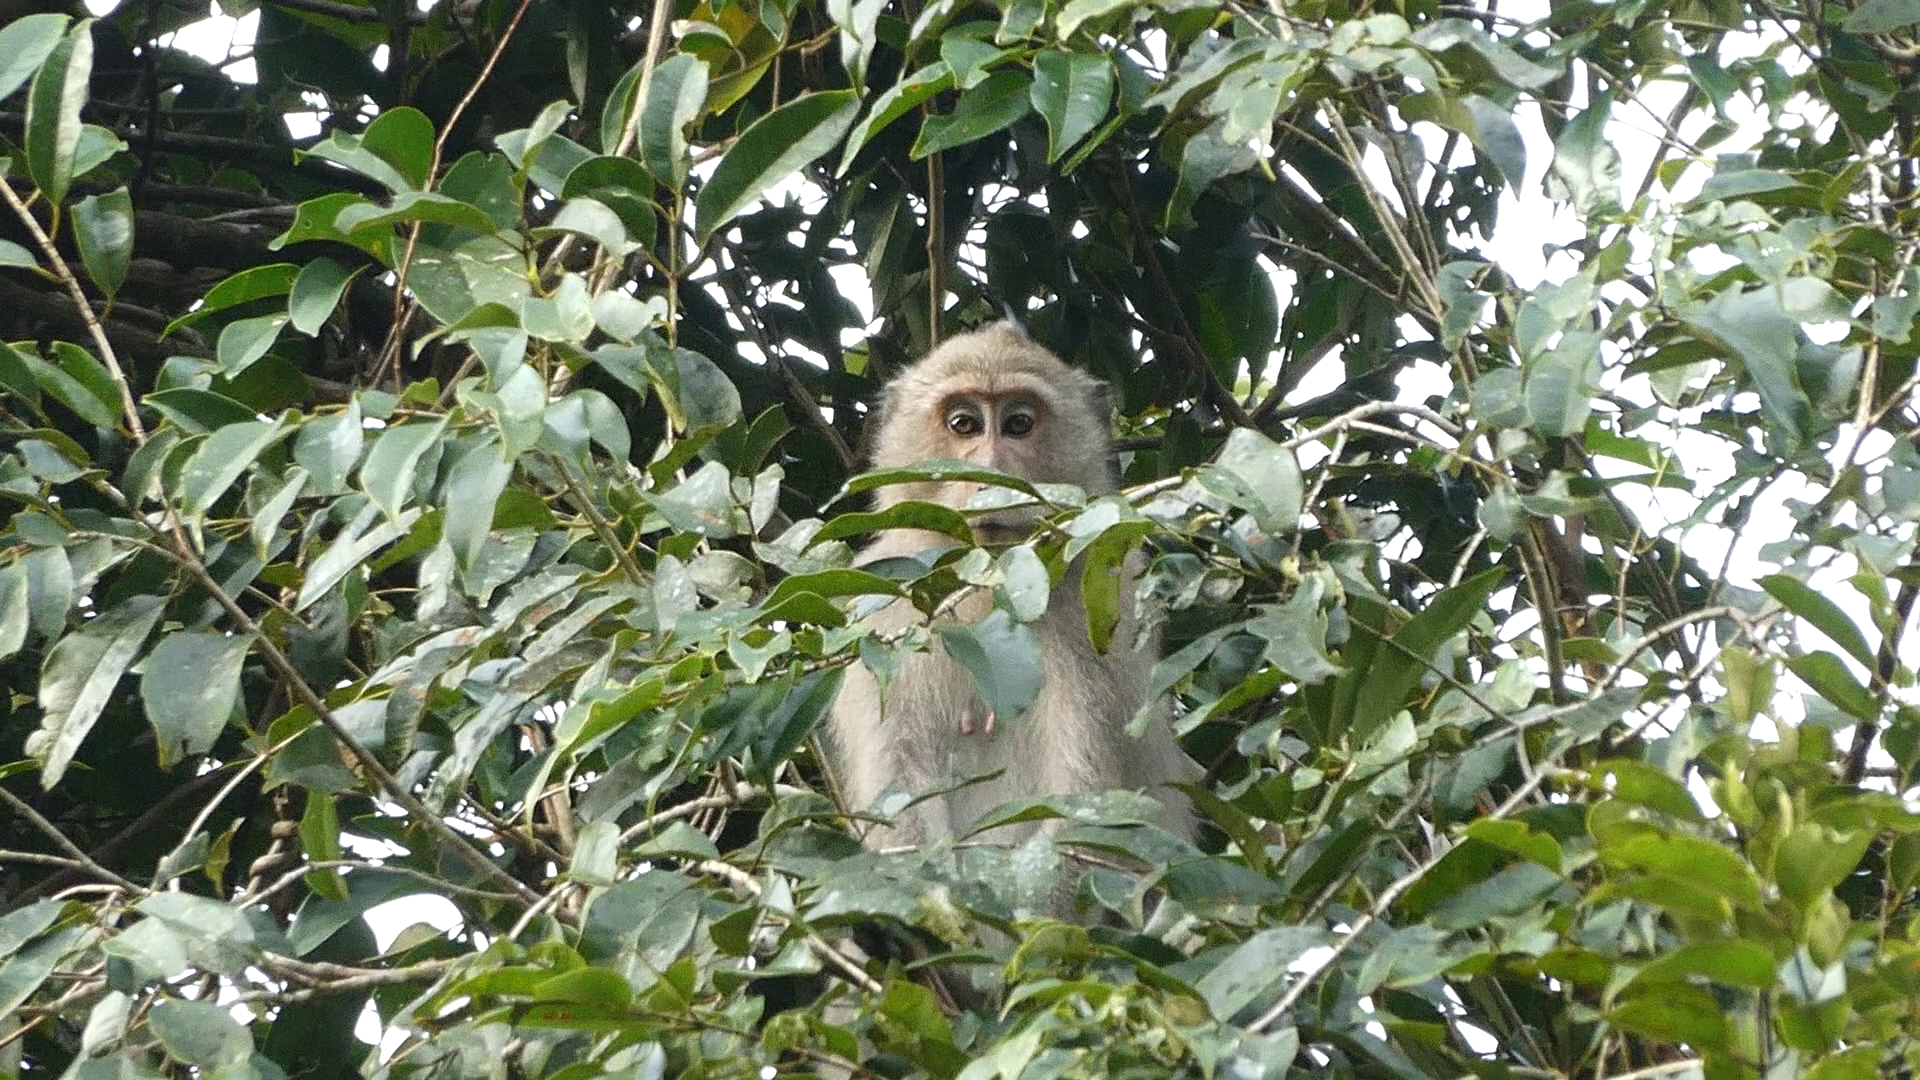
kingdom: Animalia
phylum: Chordata
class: Mammalia
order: Primates
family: Cercopithecidae
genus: Macaca
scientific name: Macaca fascicularis
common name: Crab-eating macaque
